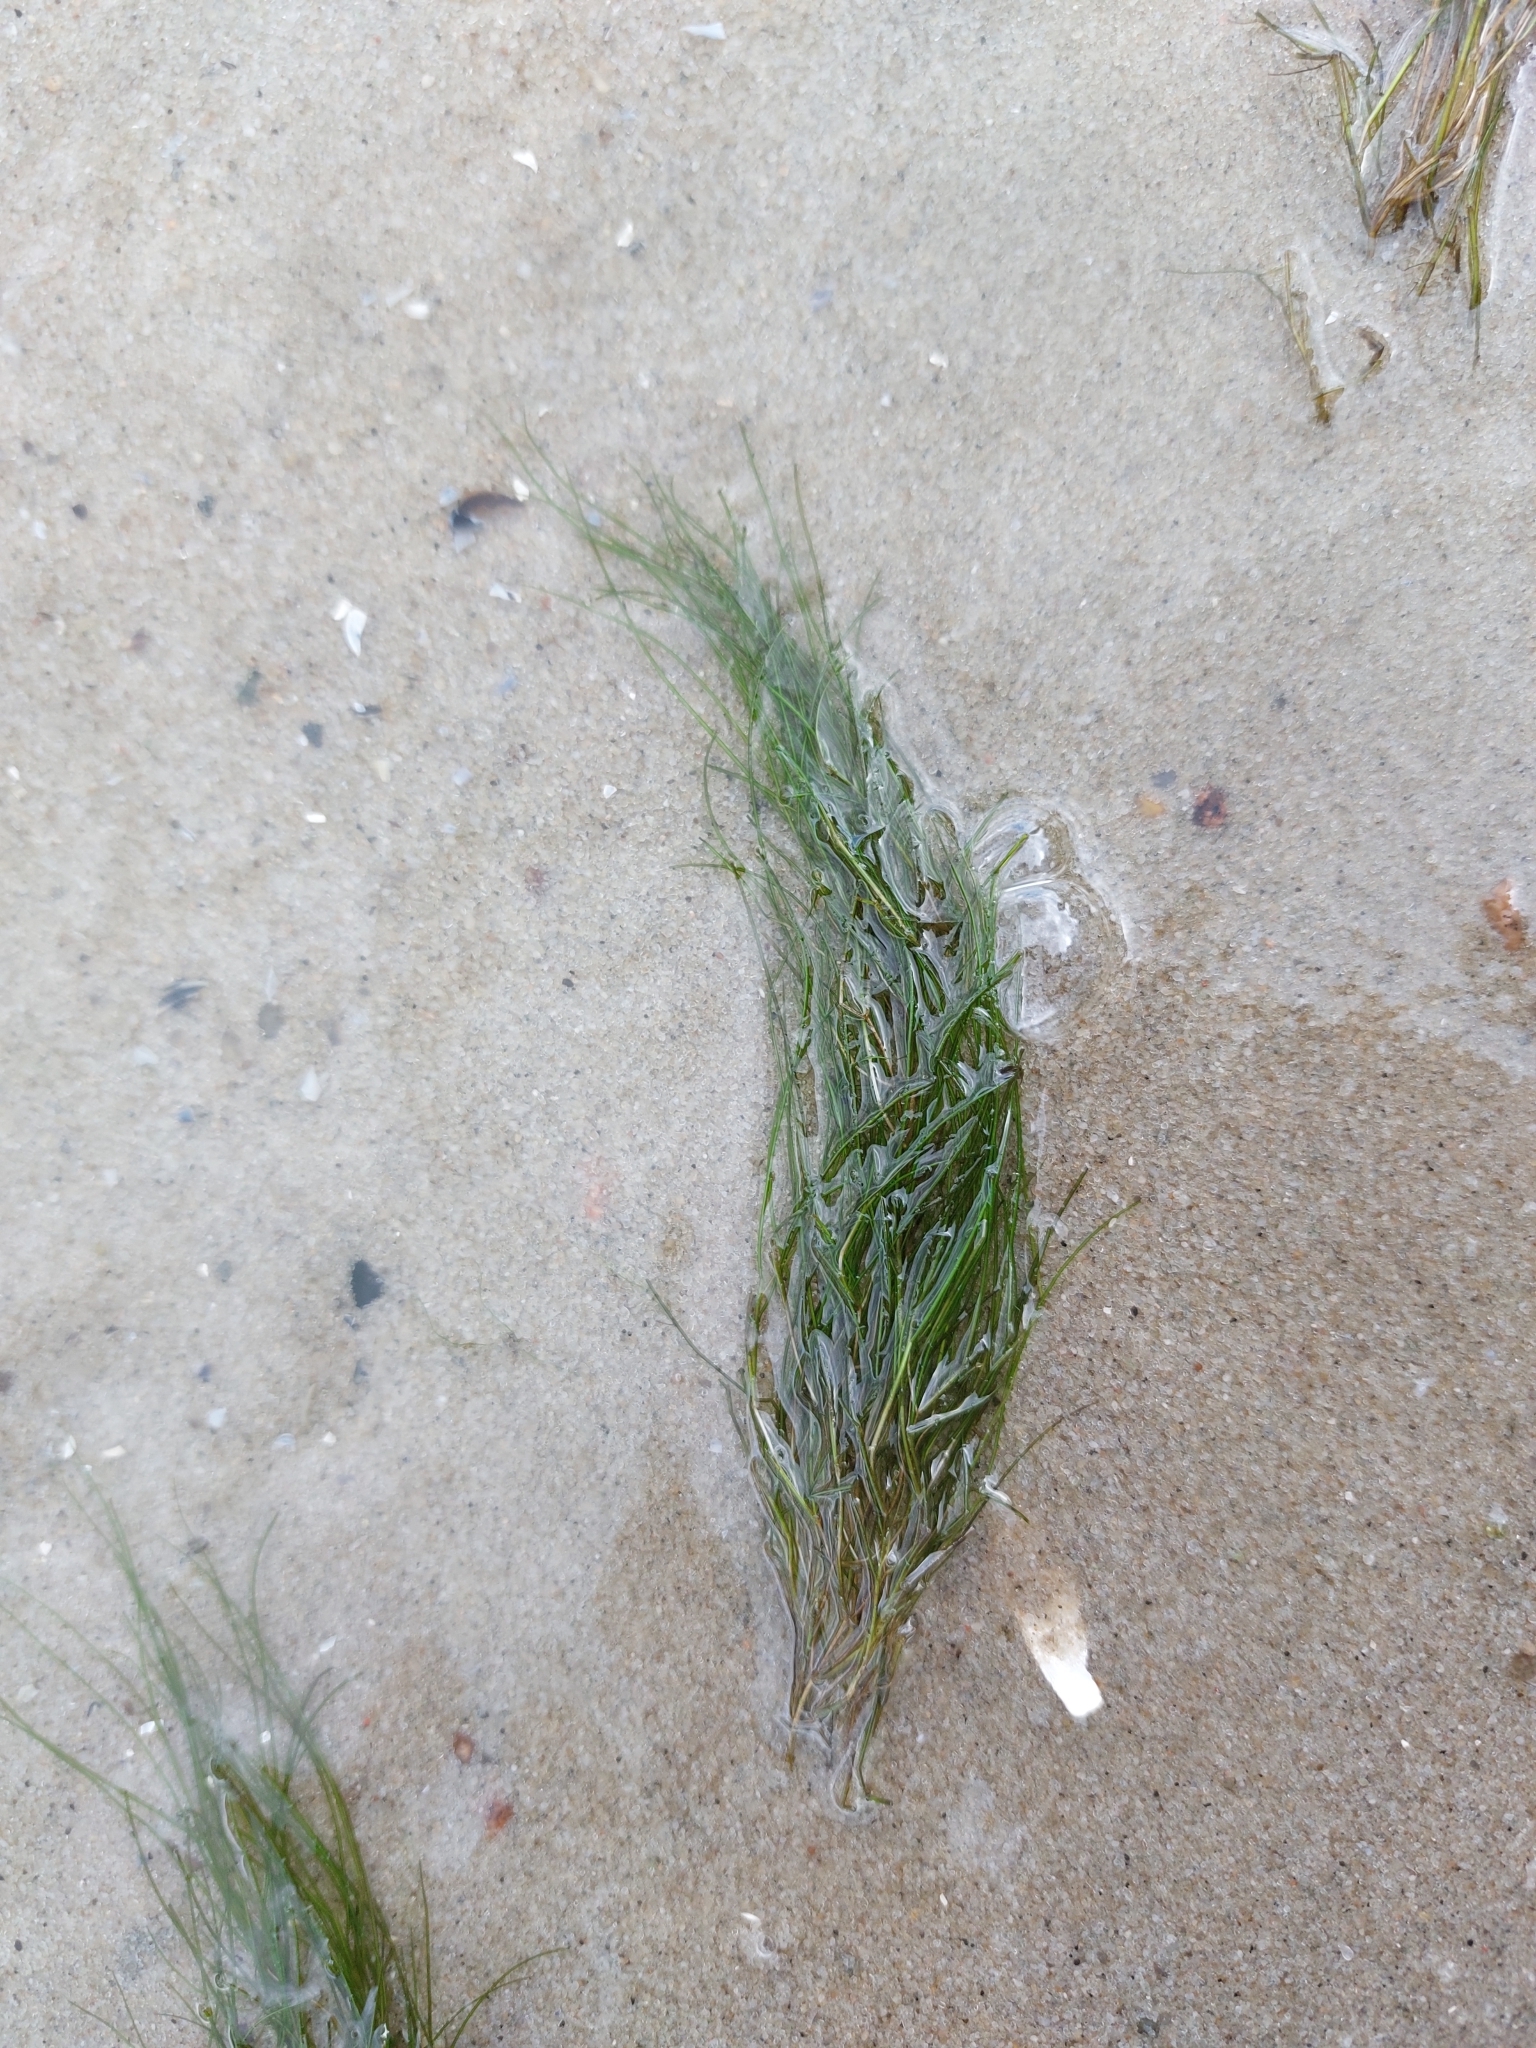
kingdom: Plantae
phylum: Tracheophyta
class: Liliopsida
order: Alismatales
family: Potamogetonaceae
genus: Stuckenia
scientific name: Stuckenia pectinata
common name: Sago pondweed
